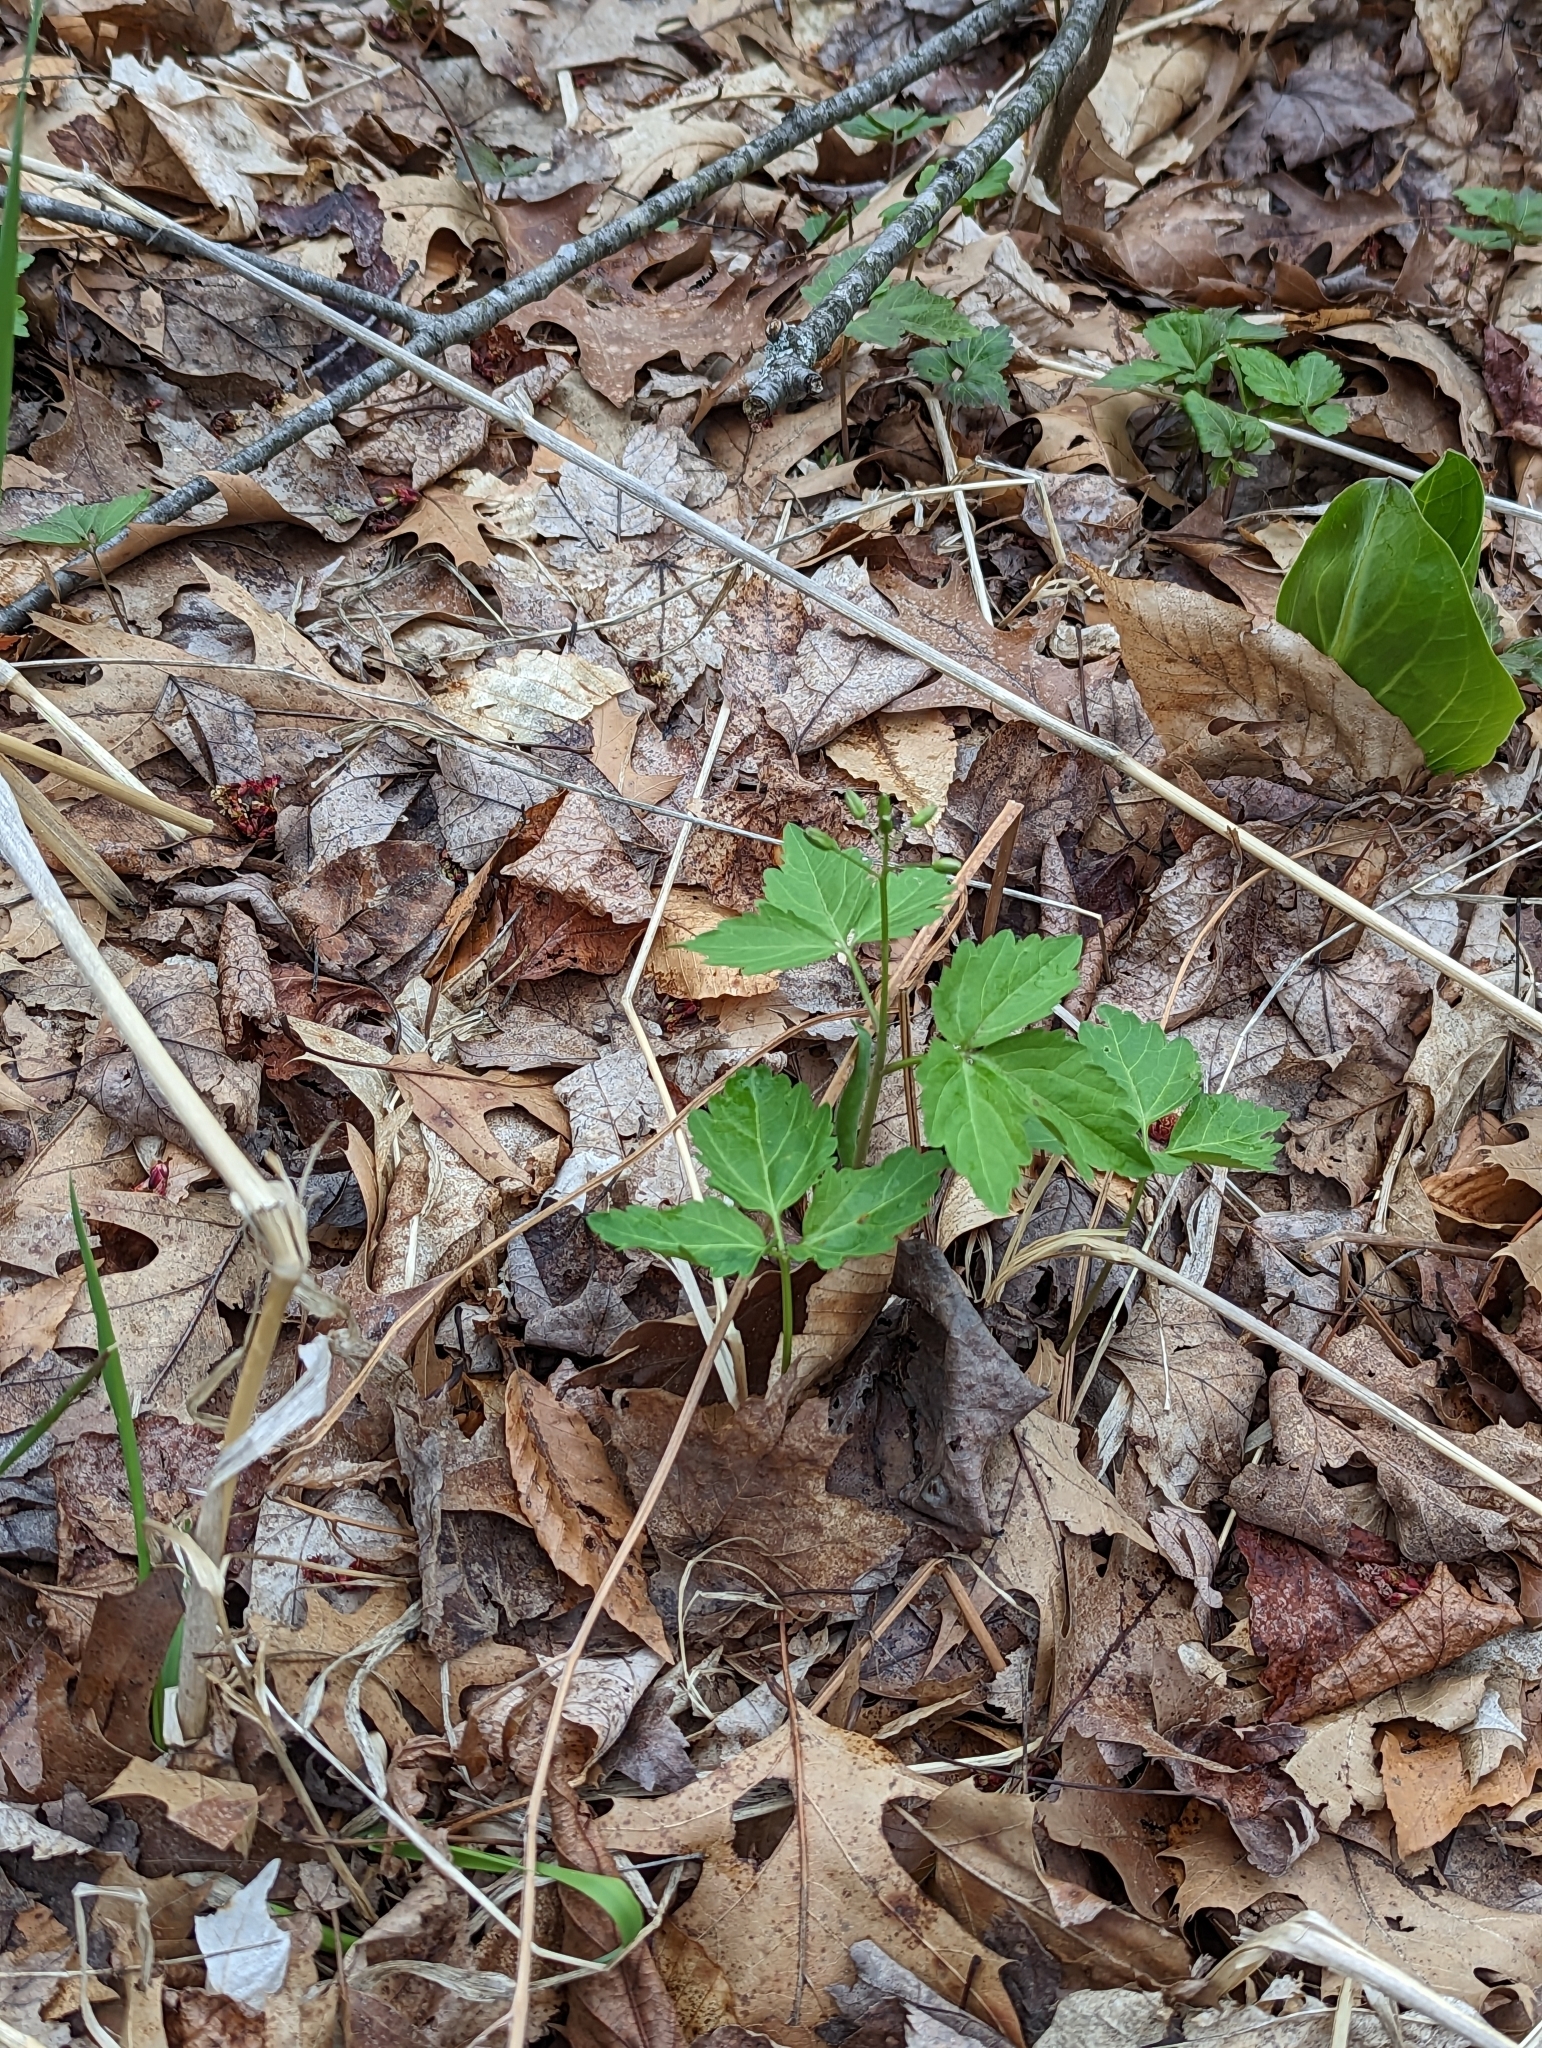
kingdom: Plantae
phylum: Tracheophyta
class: Magnoliopsida
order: Brassicales
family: Brassicaceae
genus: Cardamine
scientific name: Cardamine diphylla
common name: Broad-leaved toothwort
